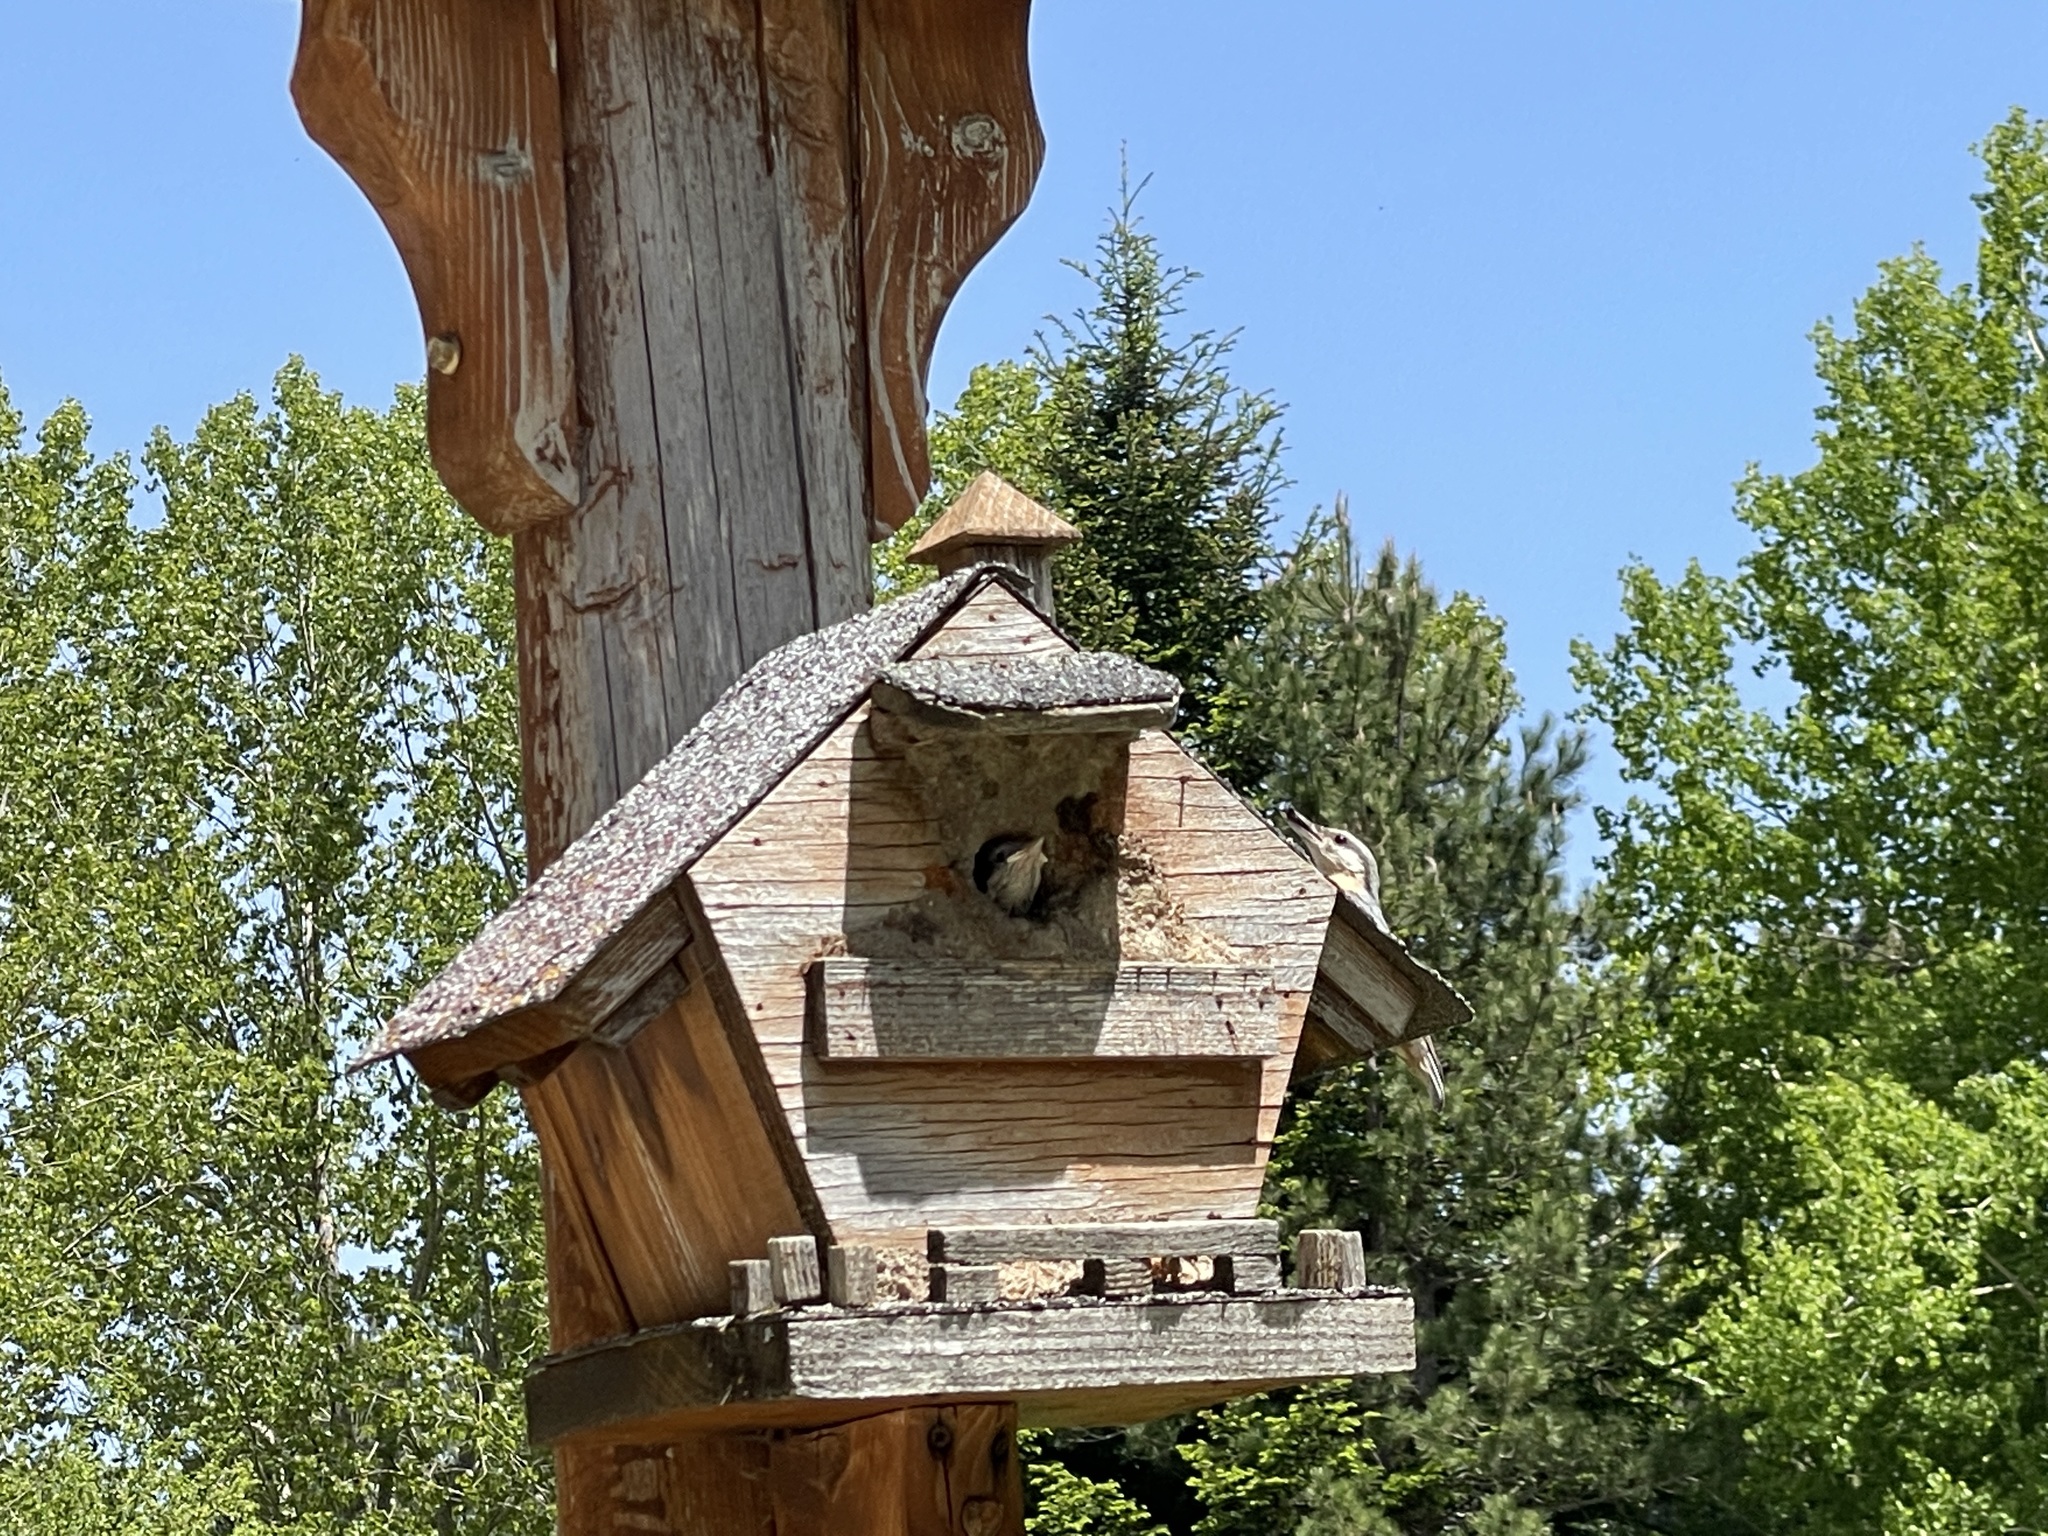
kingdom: Animalia
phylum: Chordata
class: Aves
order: Passeriformes
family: Sittidae
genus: Sitta
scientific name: Sitta europaea
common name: Eurasian nuthatch
